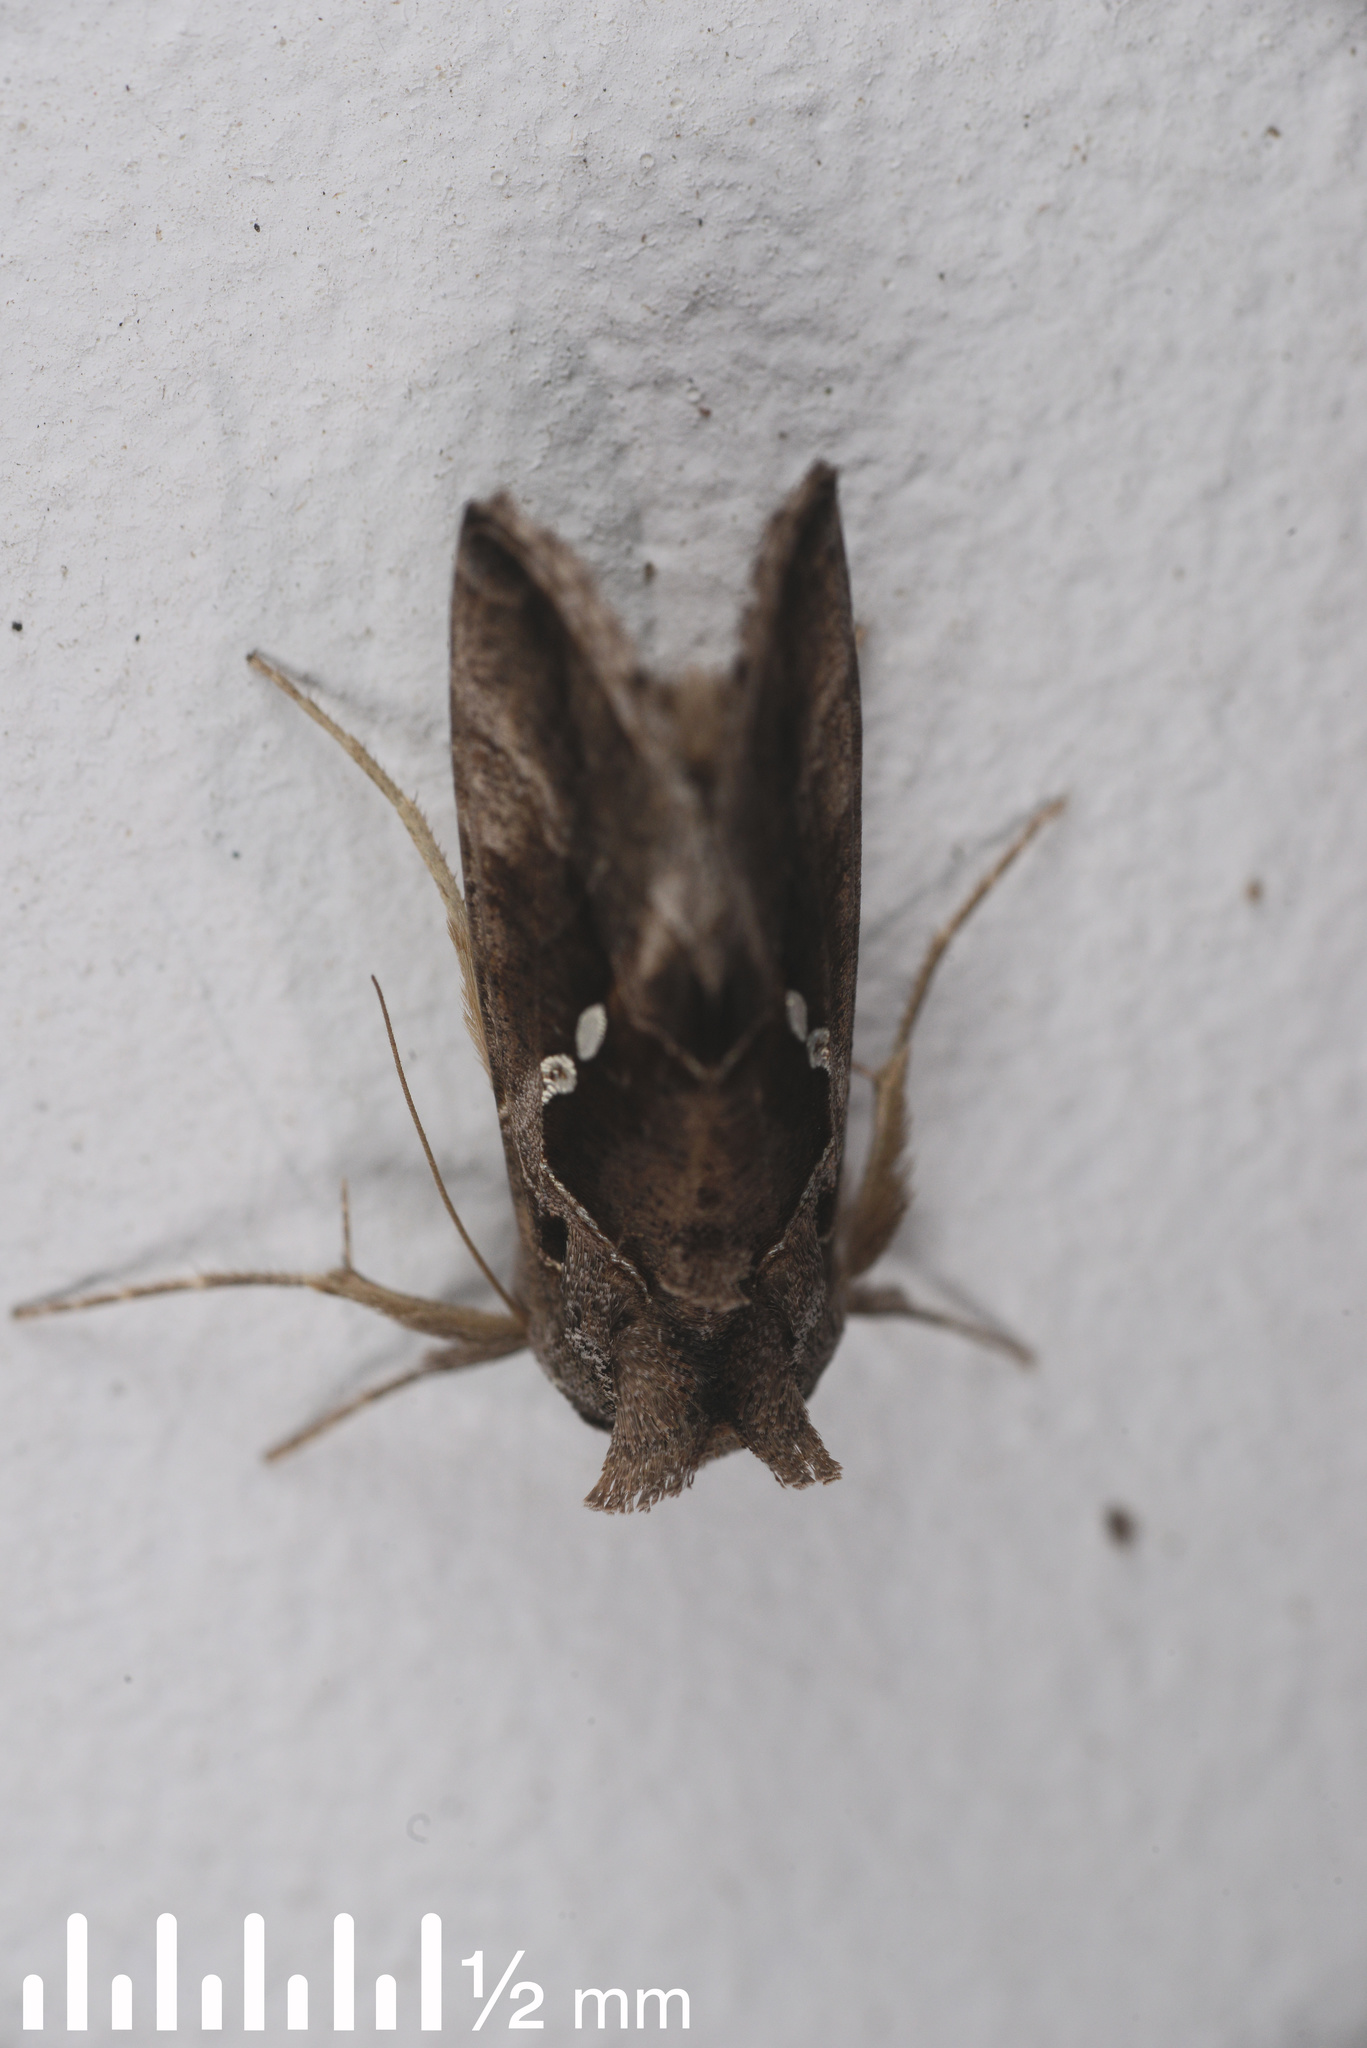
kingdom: Animalia
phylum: Arthropoda
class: Insecta
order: Lepidoptera
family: Noctuidae
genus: Chrysodeixis
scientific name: Chrysodeixis eriosoma
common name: Green garden looper
